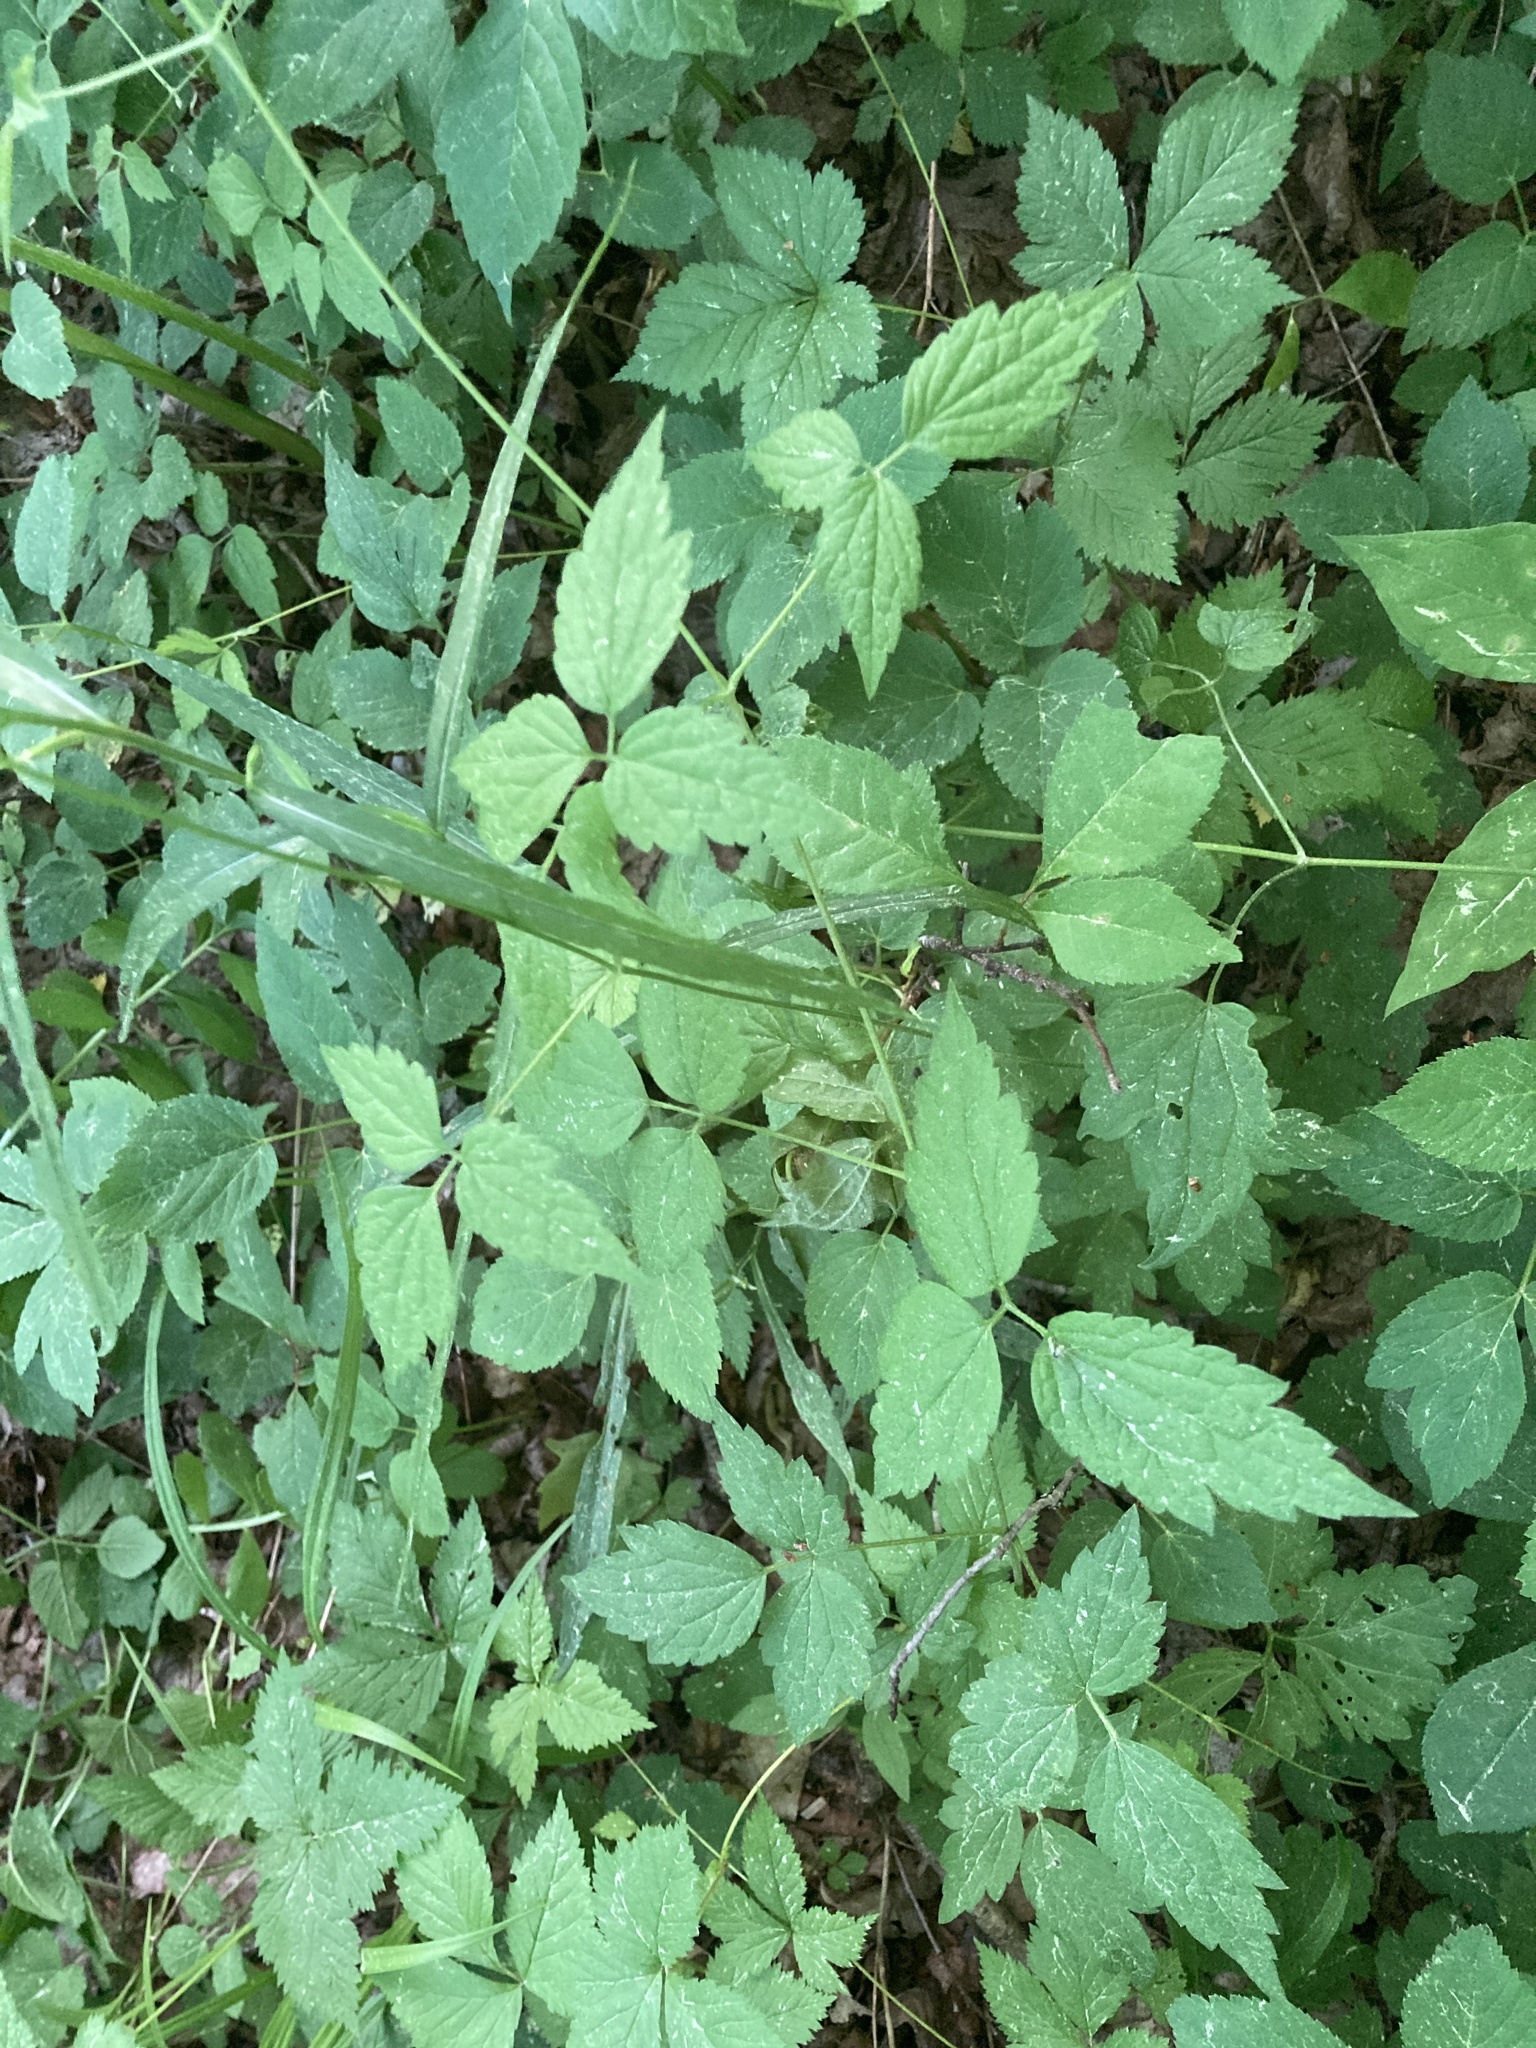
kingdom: Plantae
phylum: Tracheophyta
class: Magnoliopsida
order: Ranunculales
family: Ranunculaceae
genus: Clematis
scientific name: Clematis virginiana
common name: Virgin's-bower
